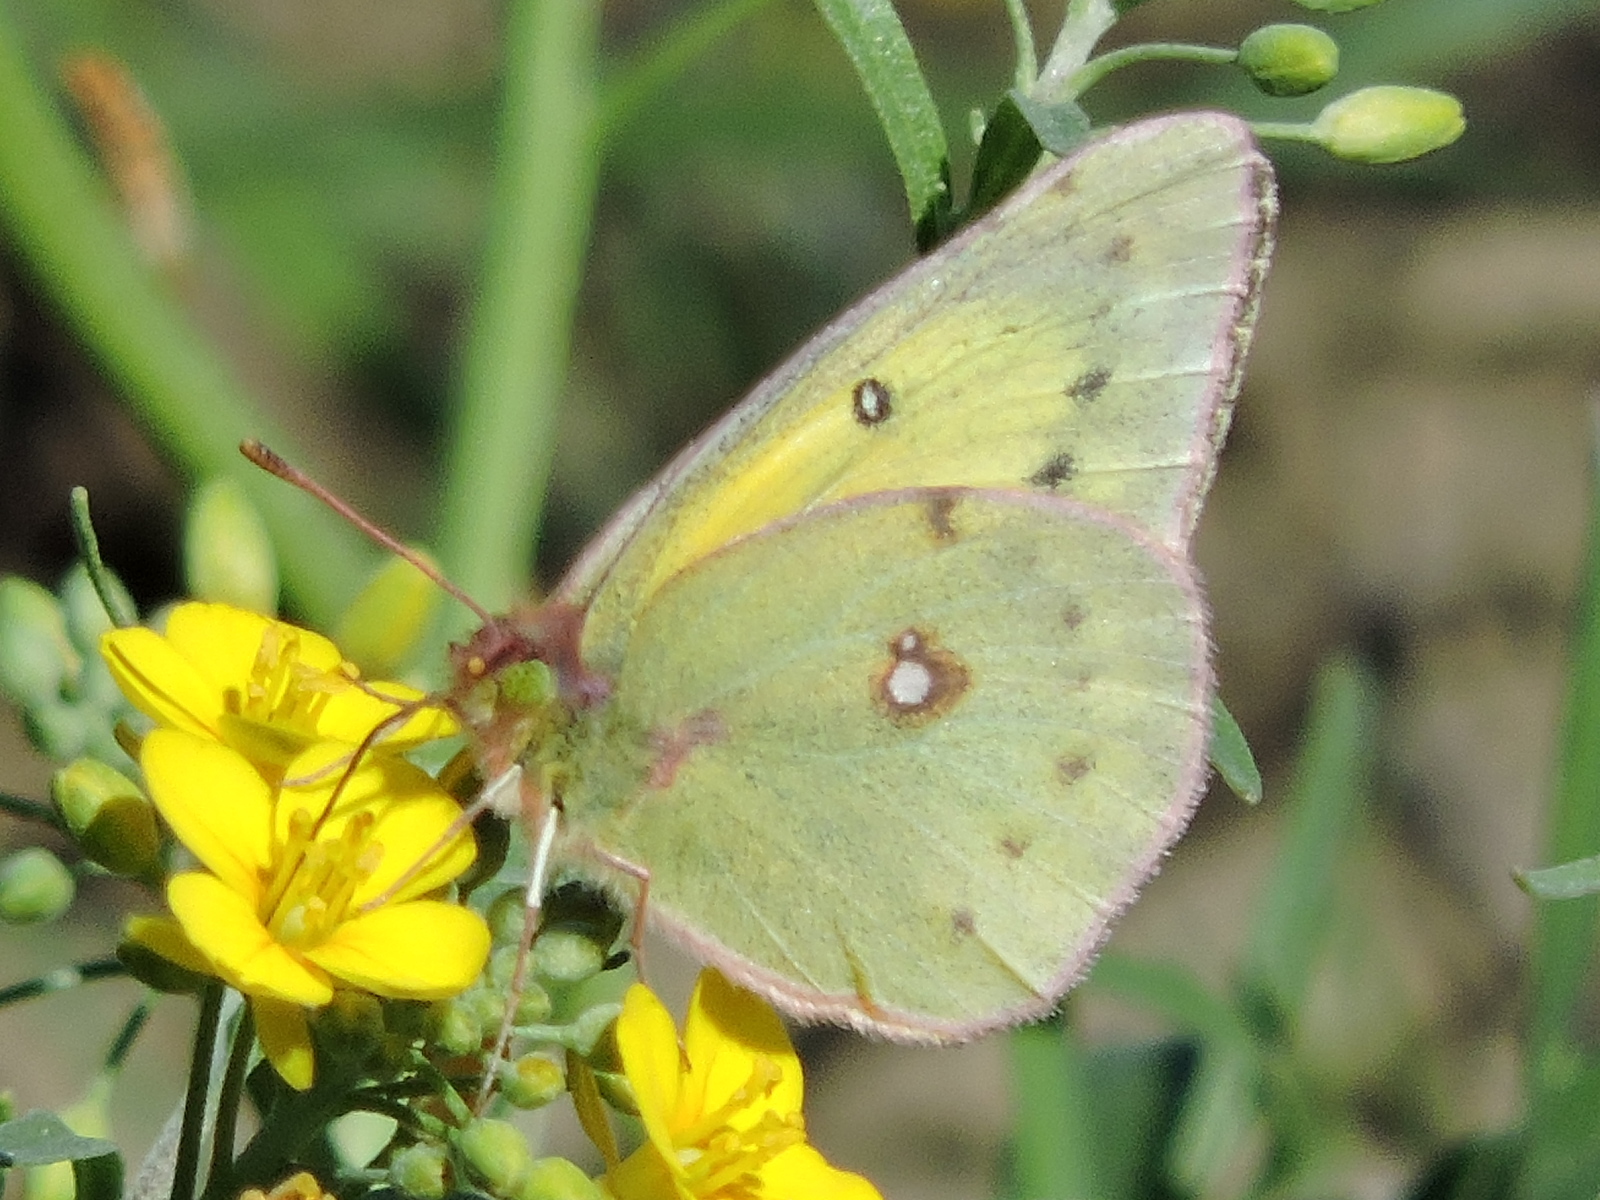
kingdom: Animalia
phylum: Arthropoda
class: Insecta
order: Lepidoptera
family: Pieridae
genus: Colias
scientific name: Colias eurytheme
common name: Alfalfa butterfly
